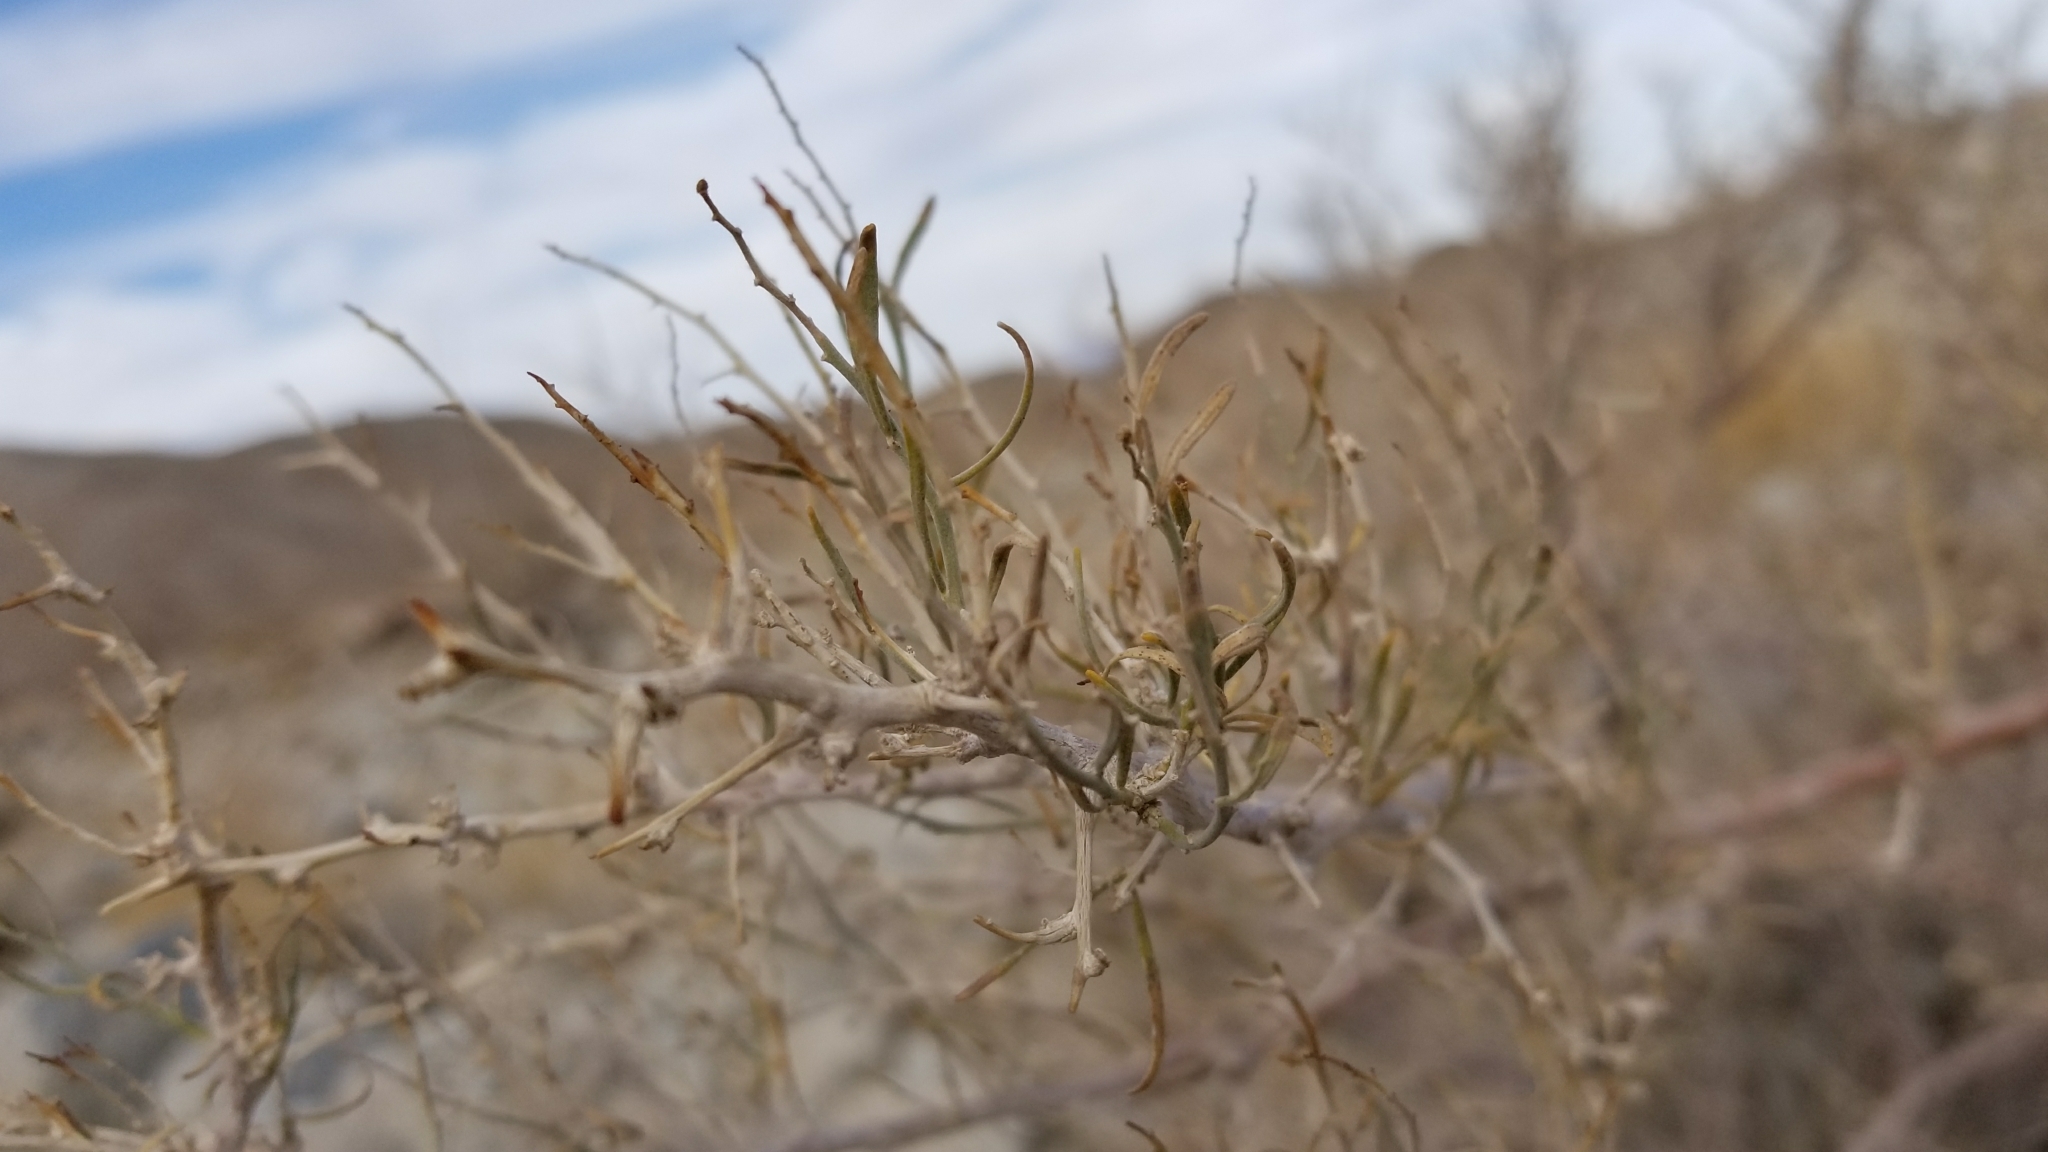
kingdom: Plantae
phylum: Tracheophyta
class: Magnoliopsida
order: Fabales
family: Fabaceae
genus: Psorothamnus
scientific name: Psorothamnus schottii
